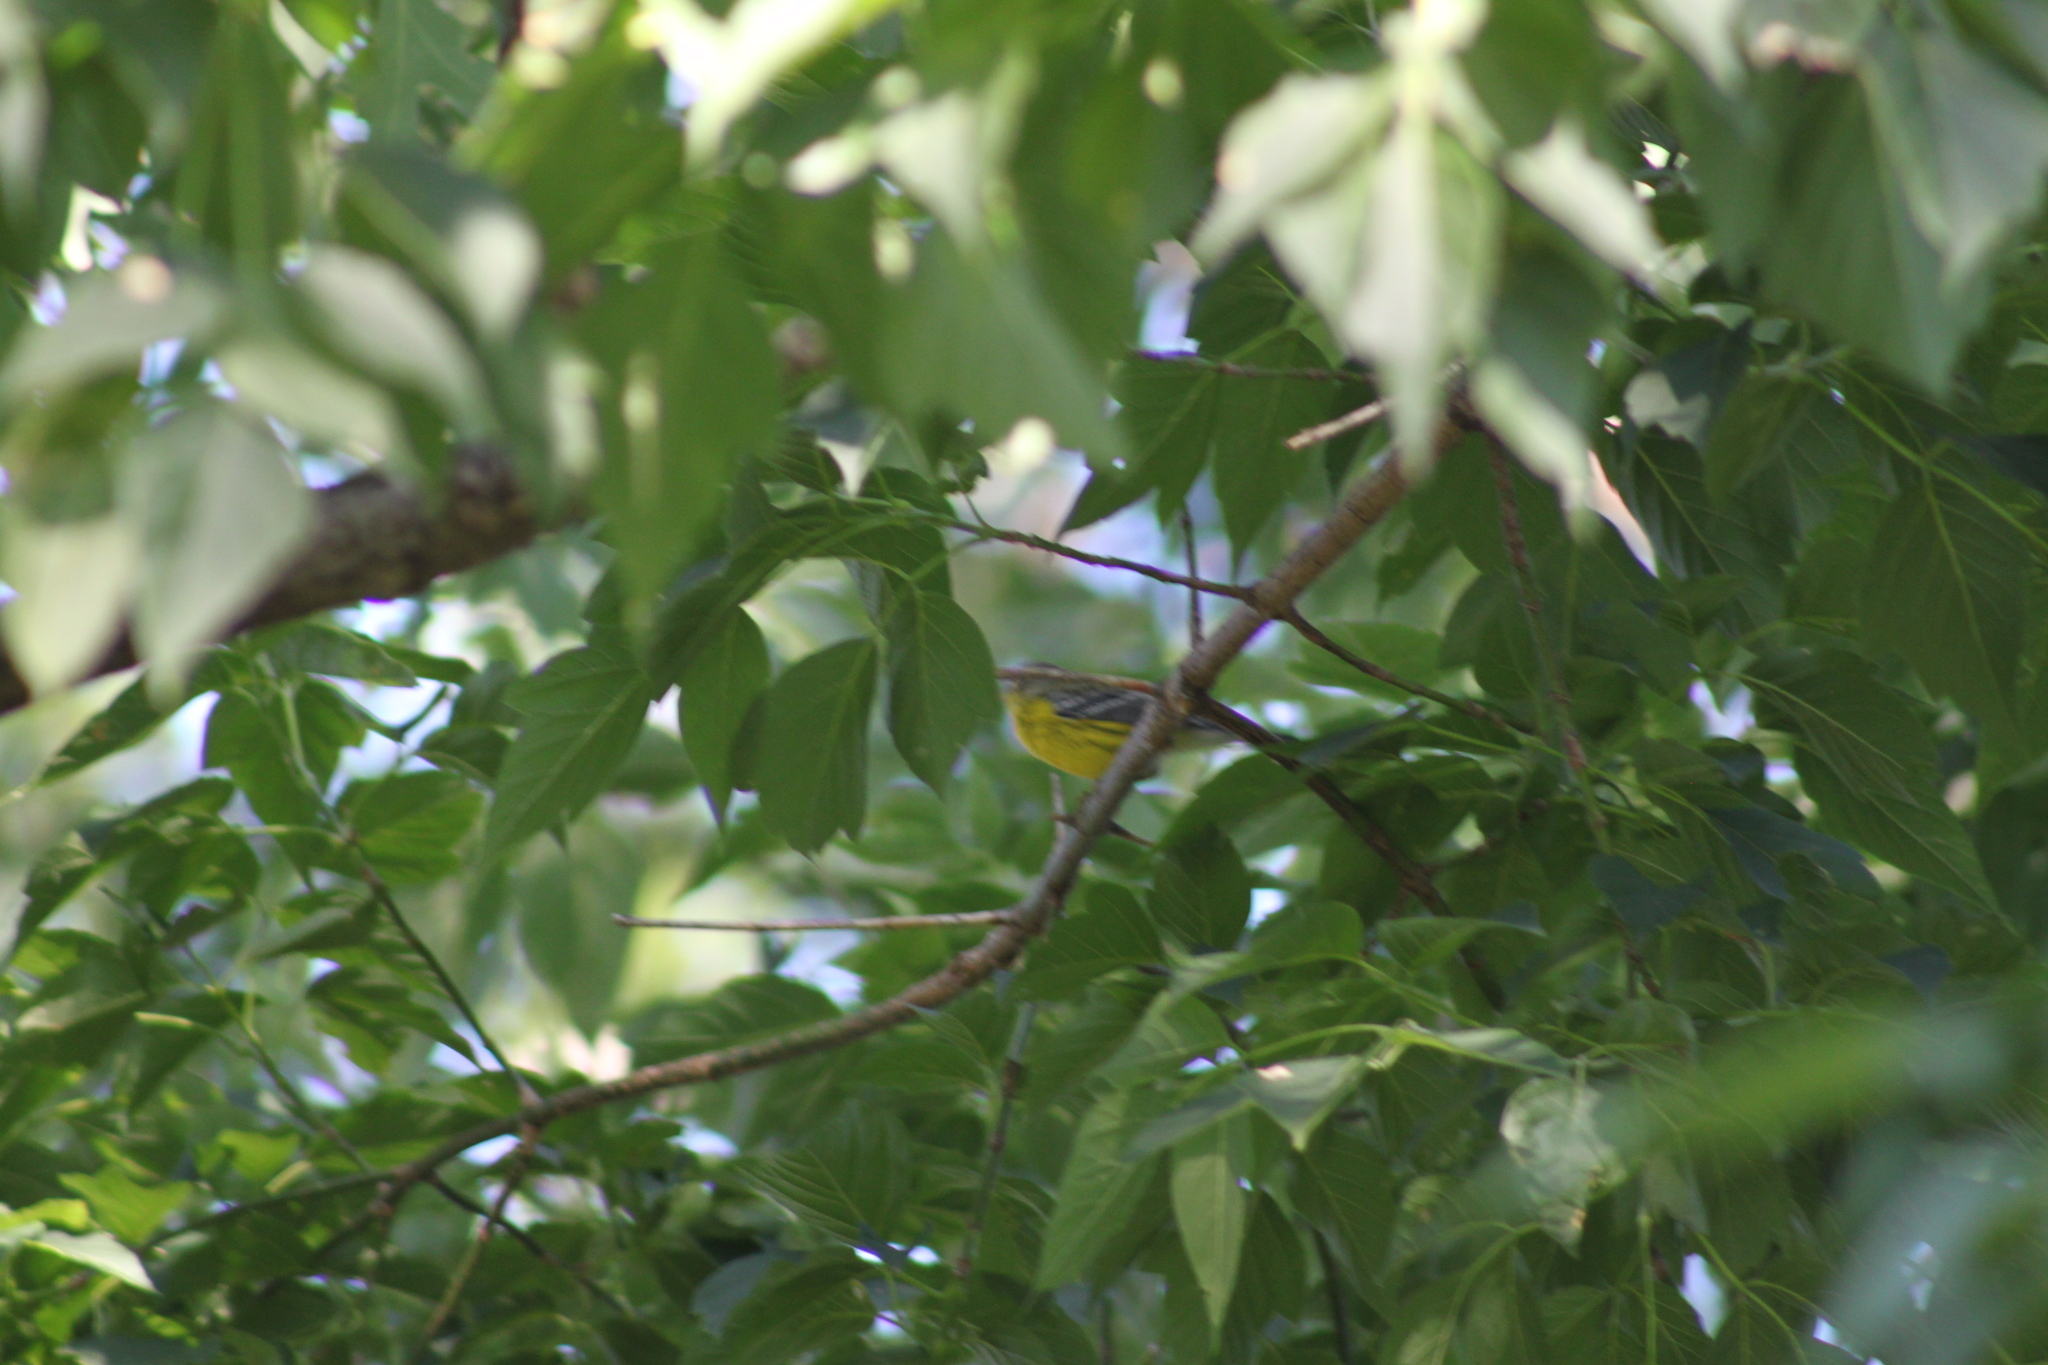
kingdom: Animalia
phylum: Chordata
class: Aves
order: Passeriformes
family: Parulidae
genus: Setophaga
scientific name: Setophaga magnolia
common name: Magnolia warbler
